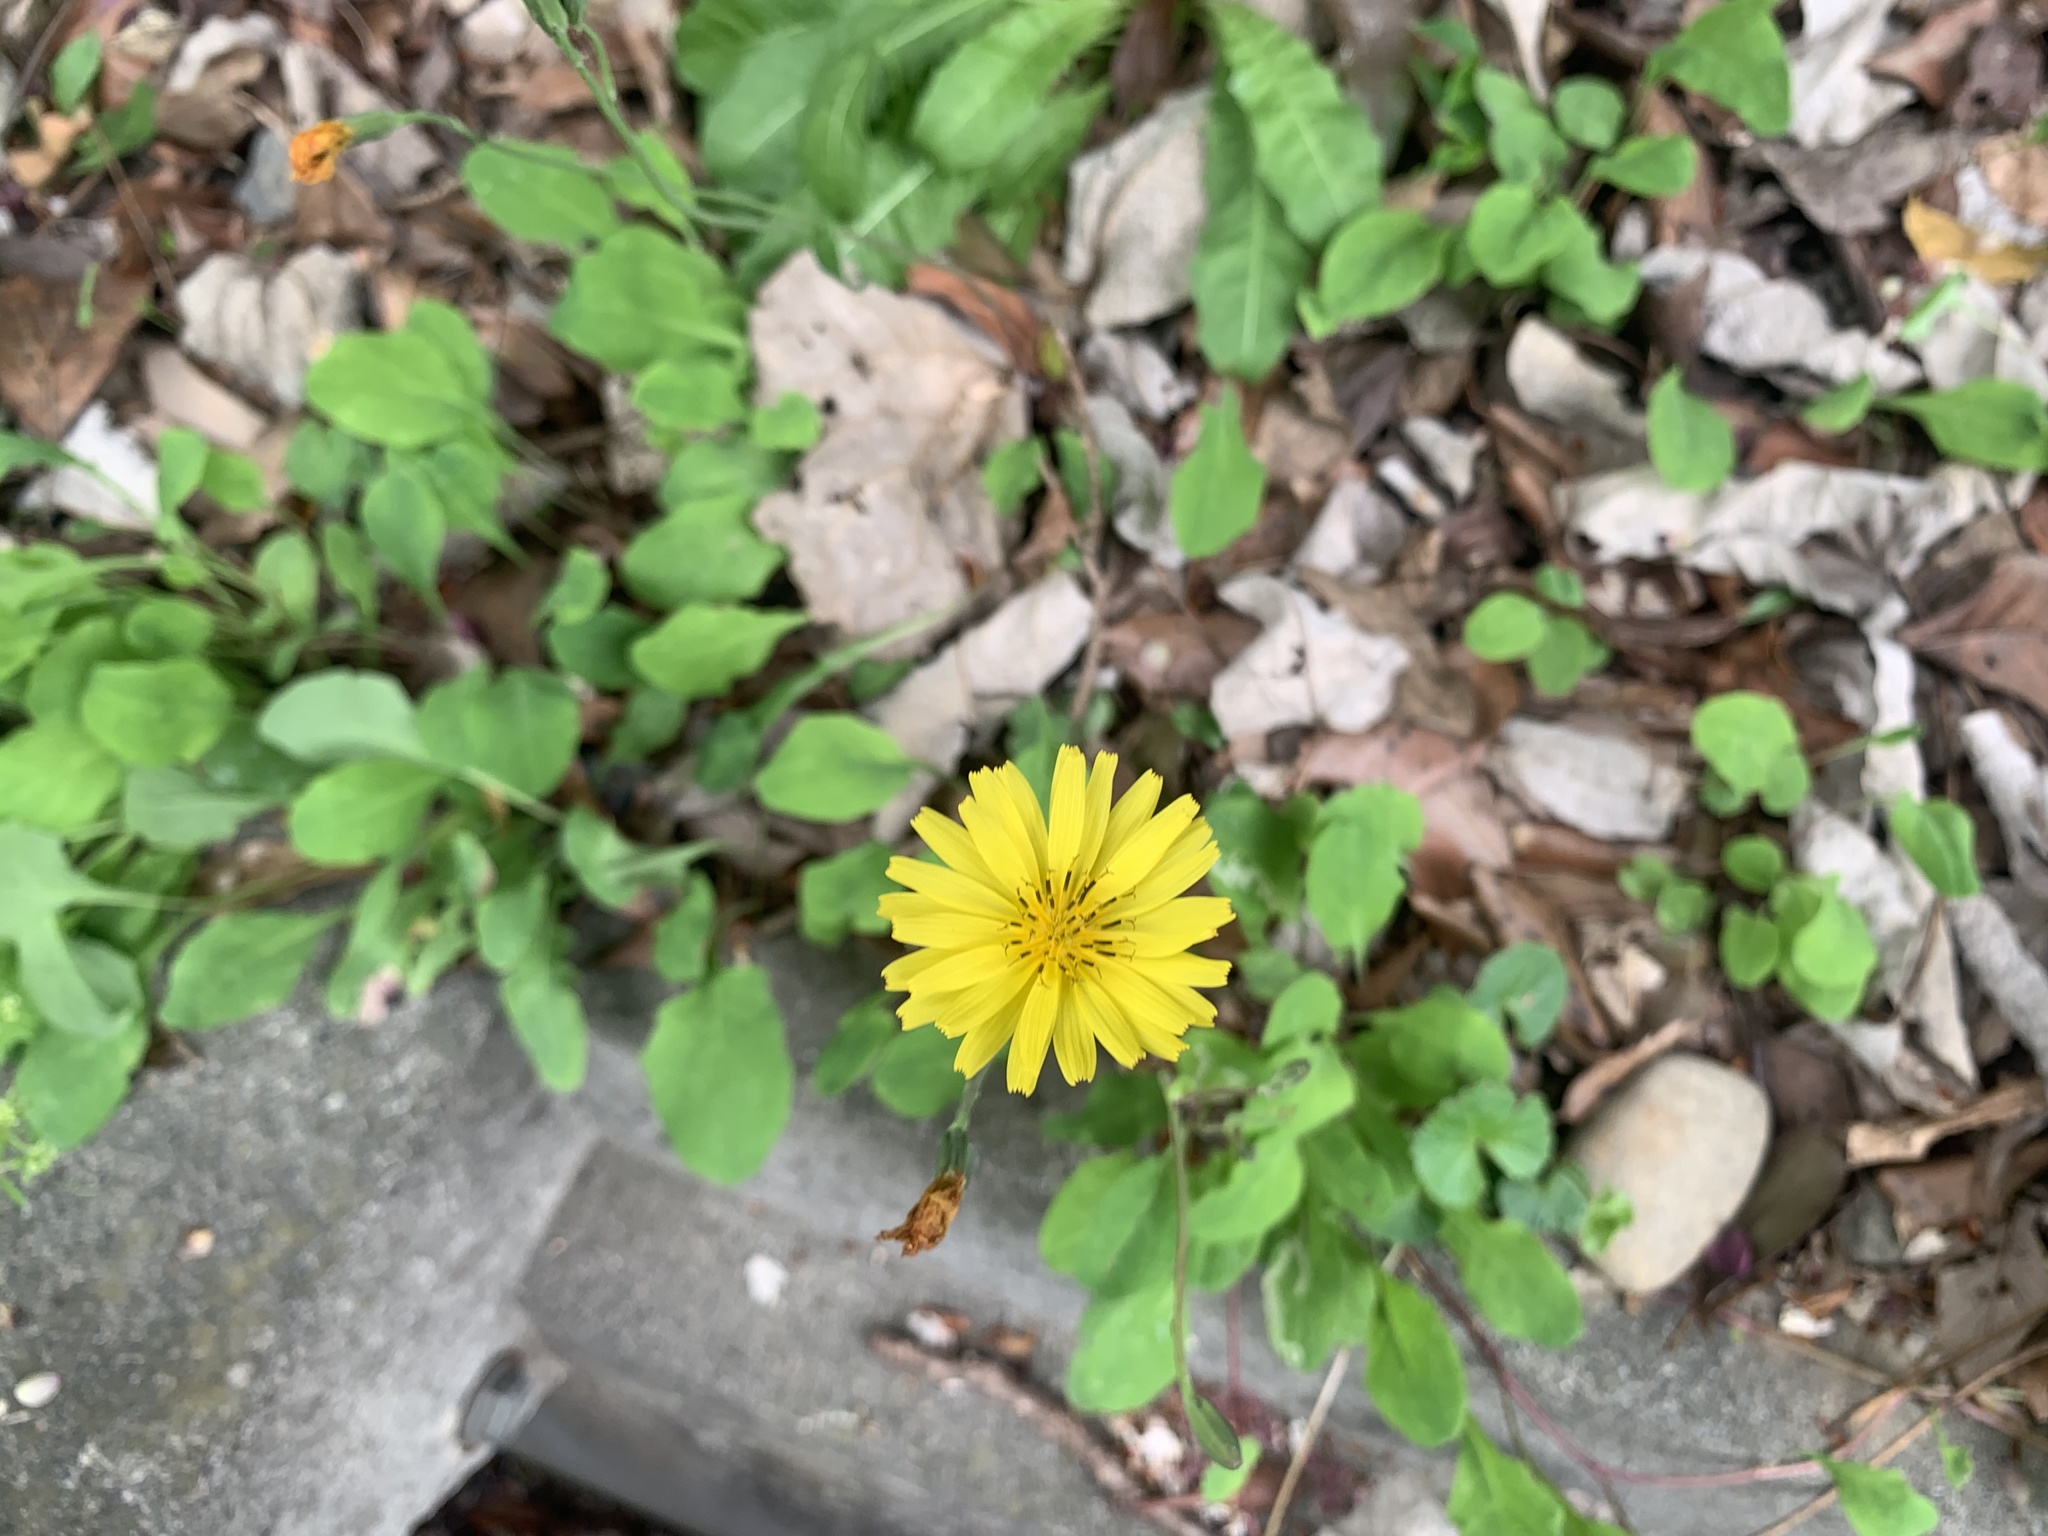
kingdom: Plantae
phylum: Tracheophyta
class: Magnoliopsida
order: Asterales
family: Asteraceae
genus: Ixeris
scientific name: Ixeris japonica
